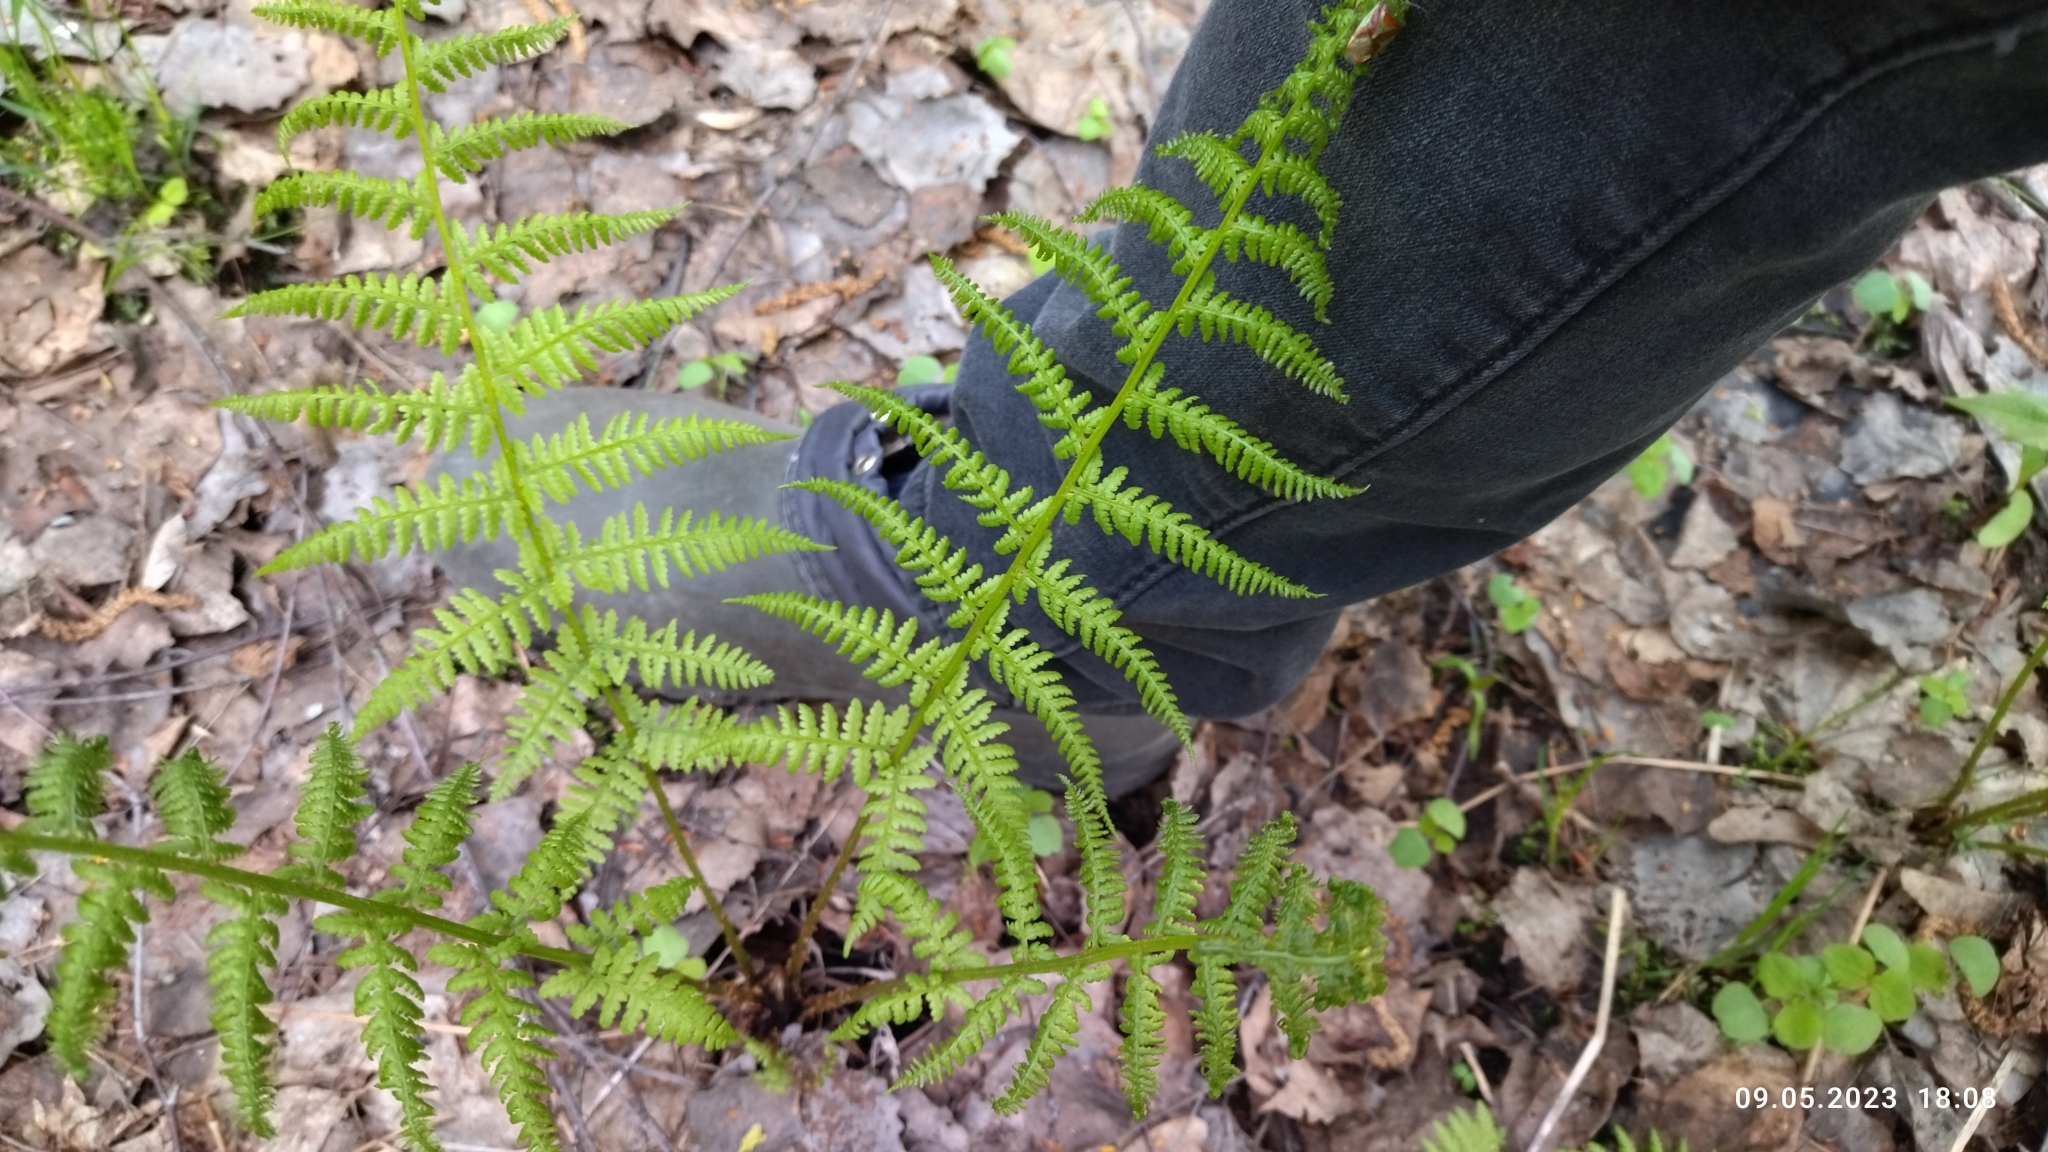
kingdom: Plantae
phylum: Tracheophyta
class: Polypodiopsida
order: Polypodiales
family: Athyriaceae
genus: Athyrium
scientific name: Athyrium filix-femina
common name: Lady fern
